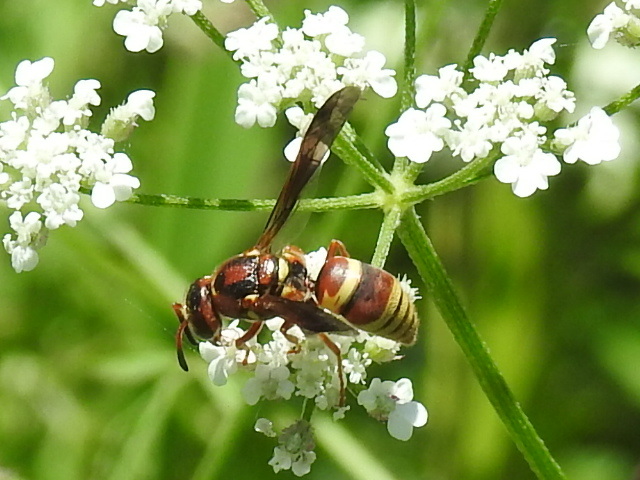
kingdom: Animalia
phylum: Arthropoda
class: Insecta
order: Hymenoptera
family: Eumenidae
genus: Euodynerus
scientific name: Euodynerus pratensis
